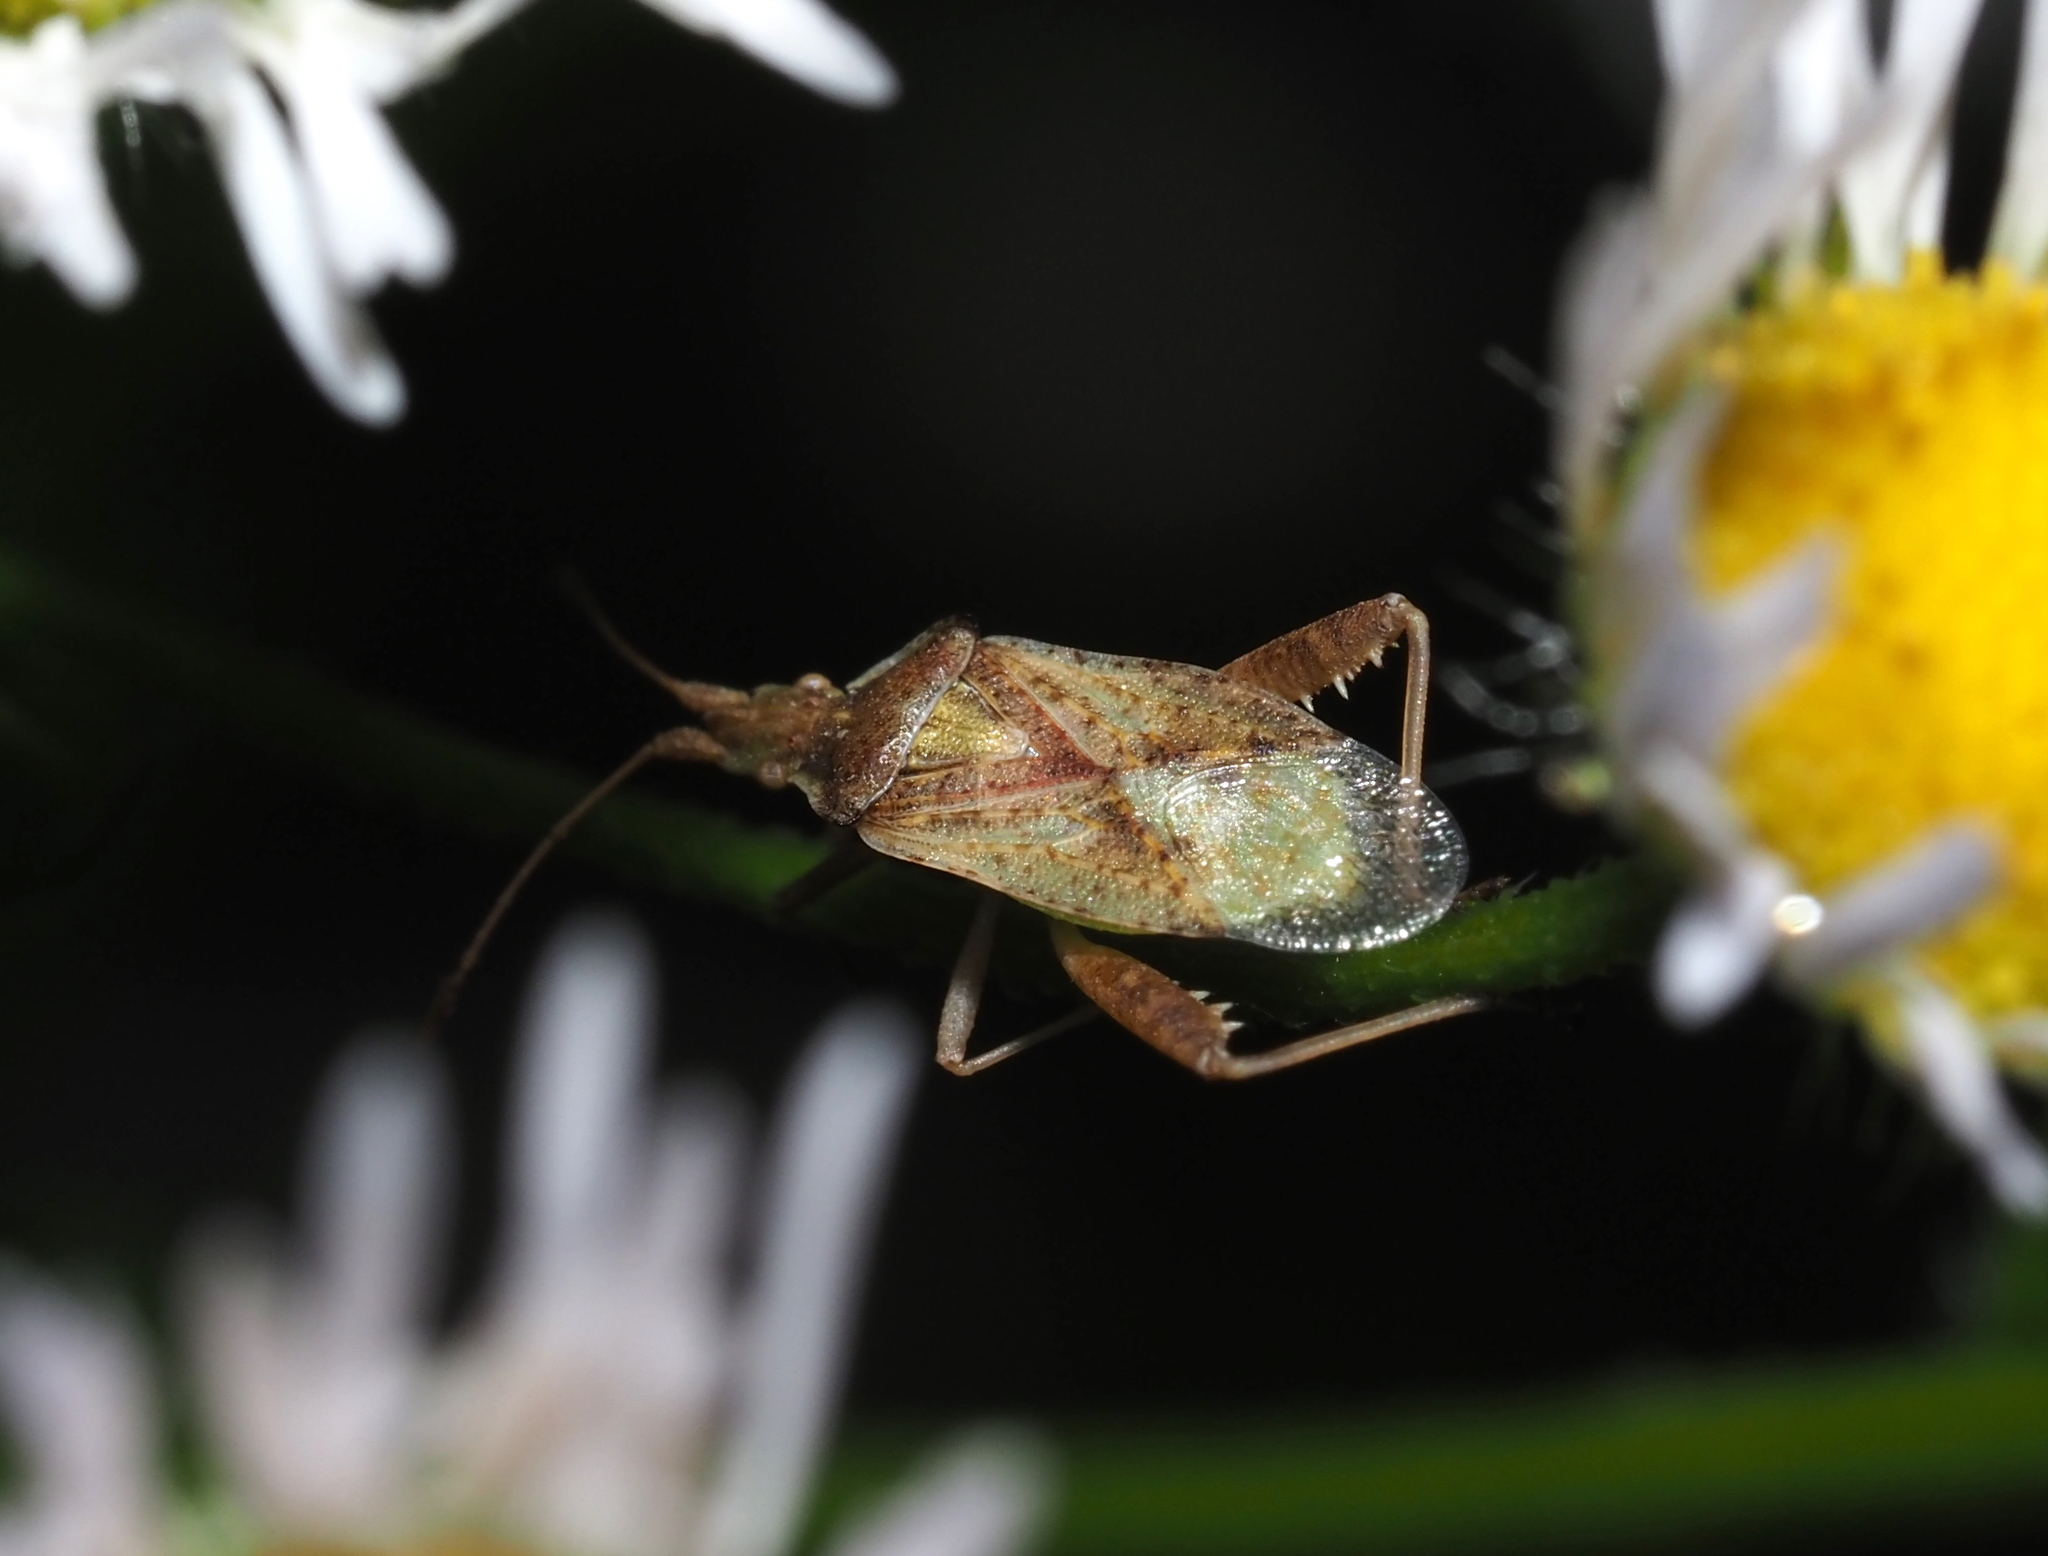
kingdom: Animalia
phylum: Arthropoda
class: Insecta
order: Hemiptera
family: Rhopalidae
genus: Harmostes
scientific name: Harmostes reflexulus
